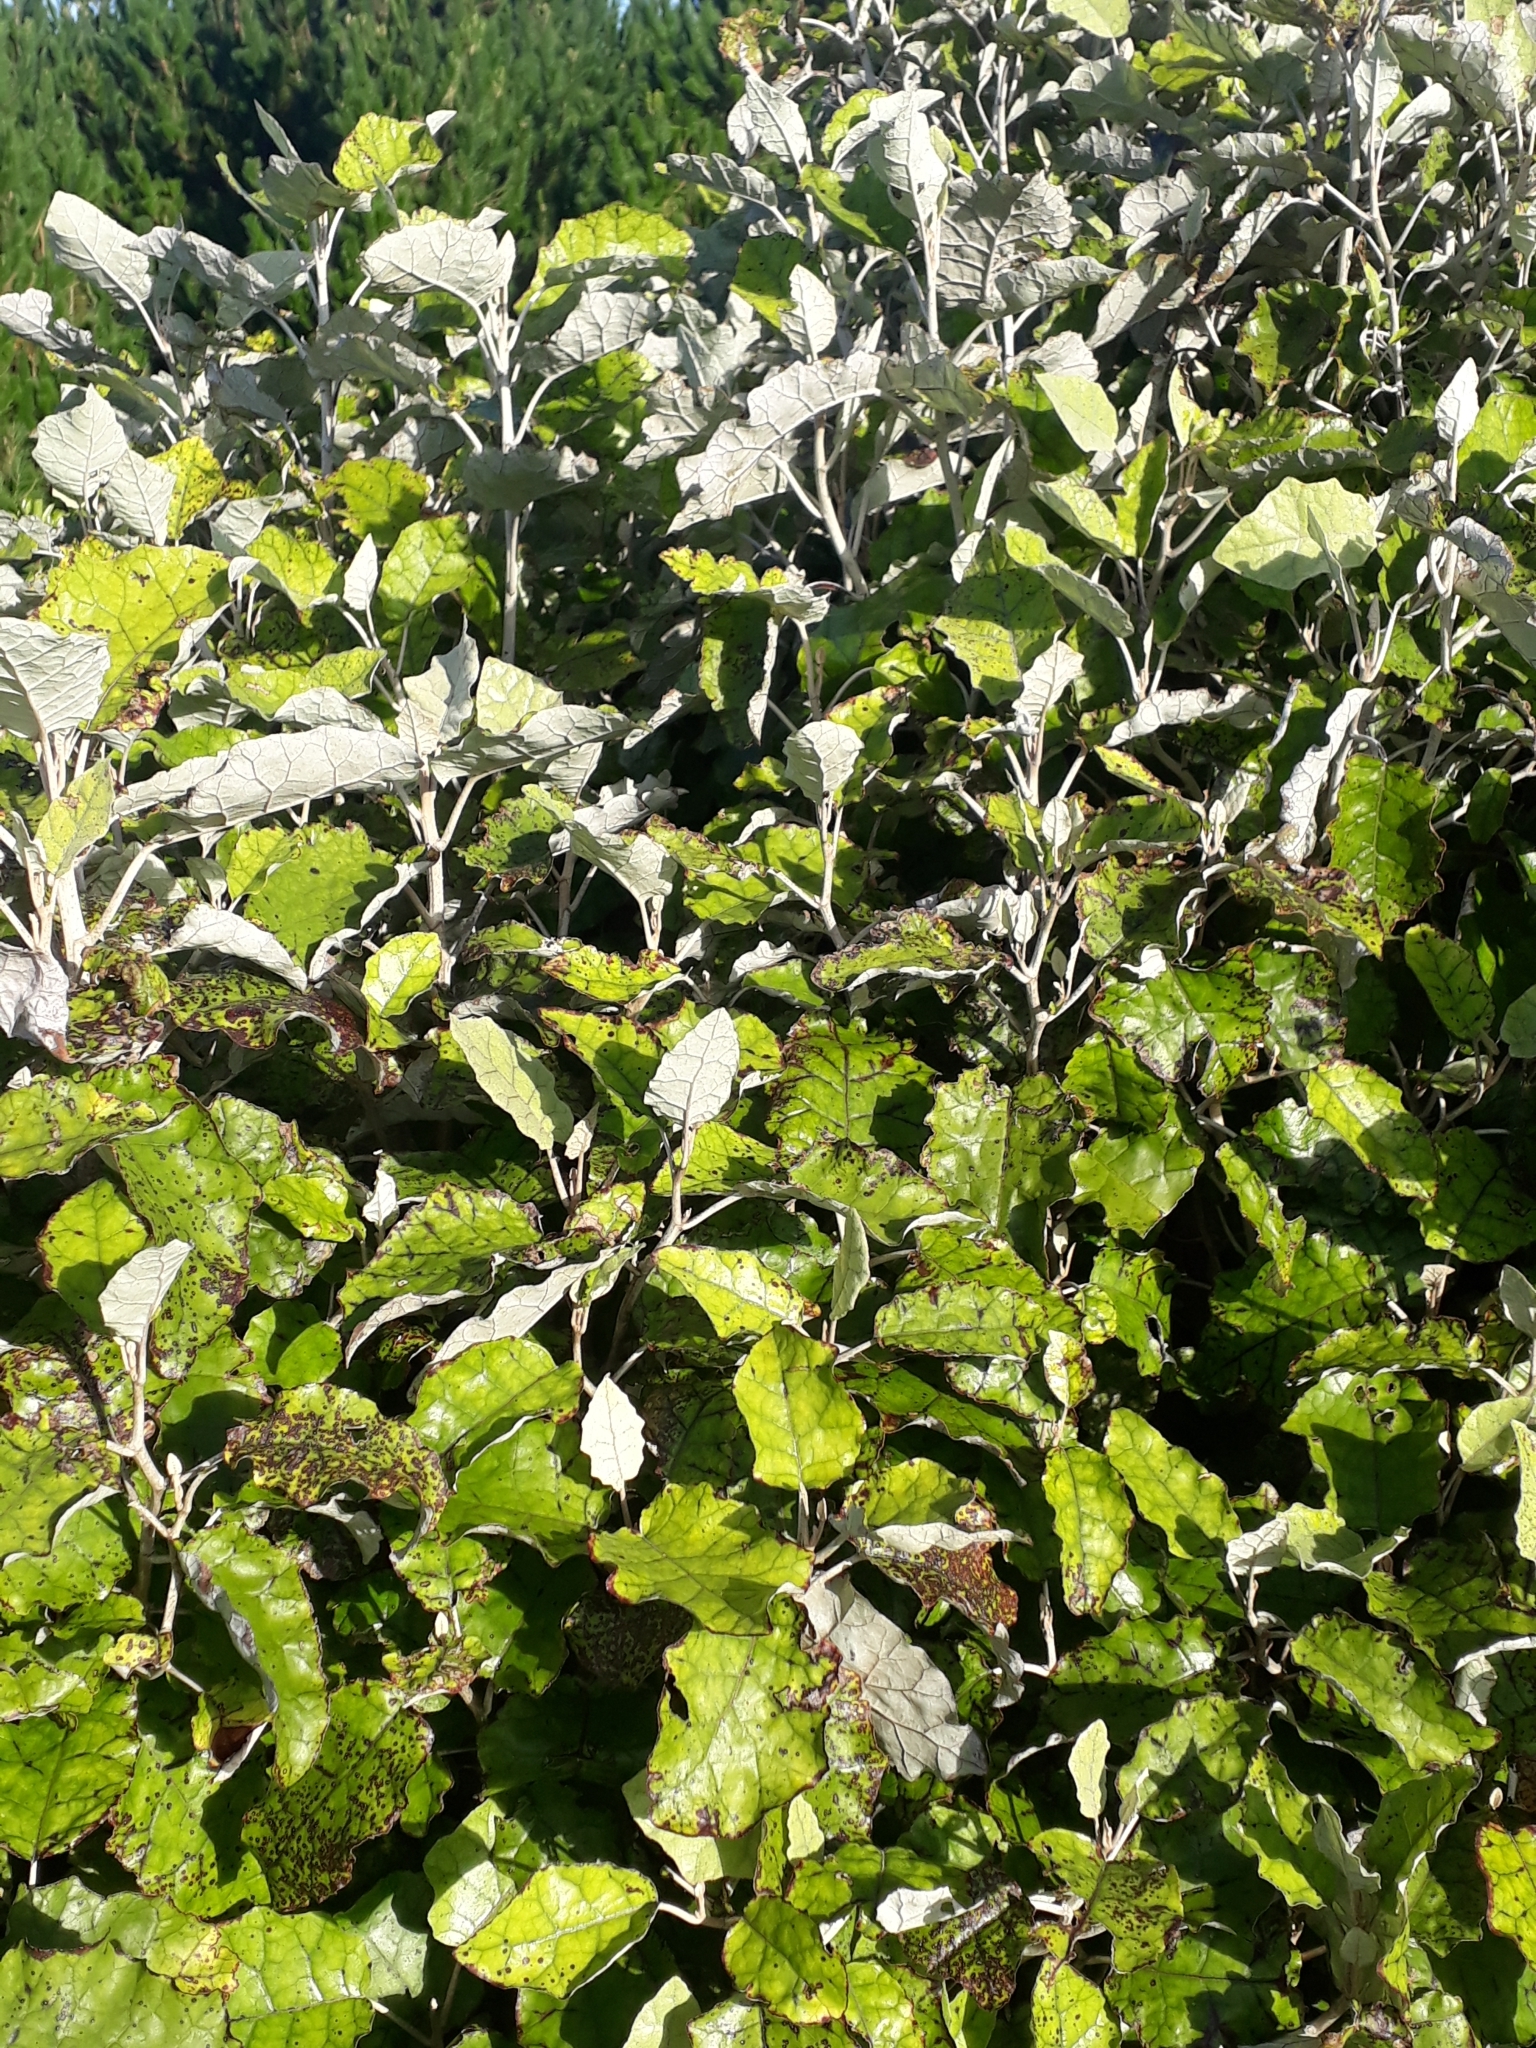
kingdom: Plantae
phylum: Tracheophyta
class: Magnoliopsida
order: Asterales
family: Asteraceae
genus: Brachyglottis
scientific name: Brachyglottis repanda
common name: Hedge ragwort
